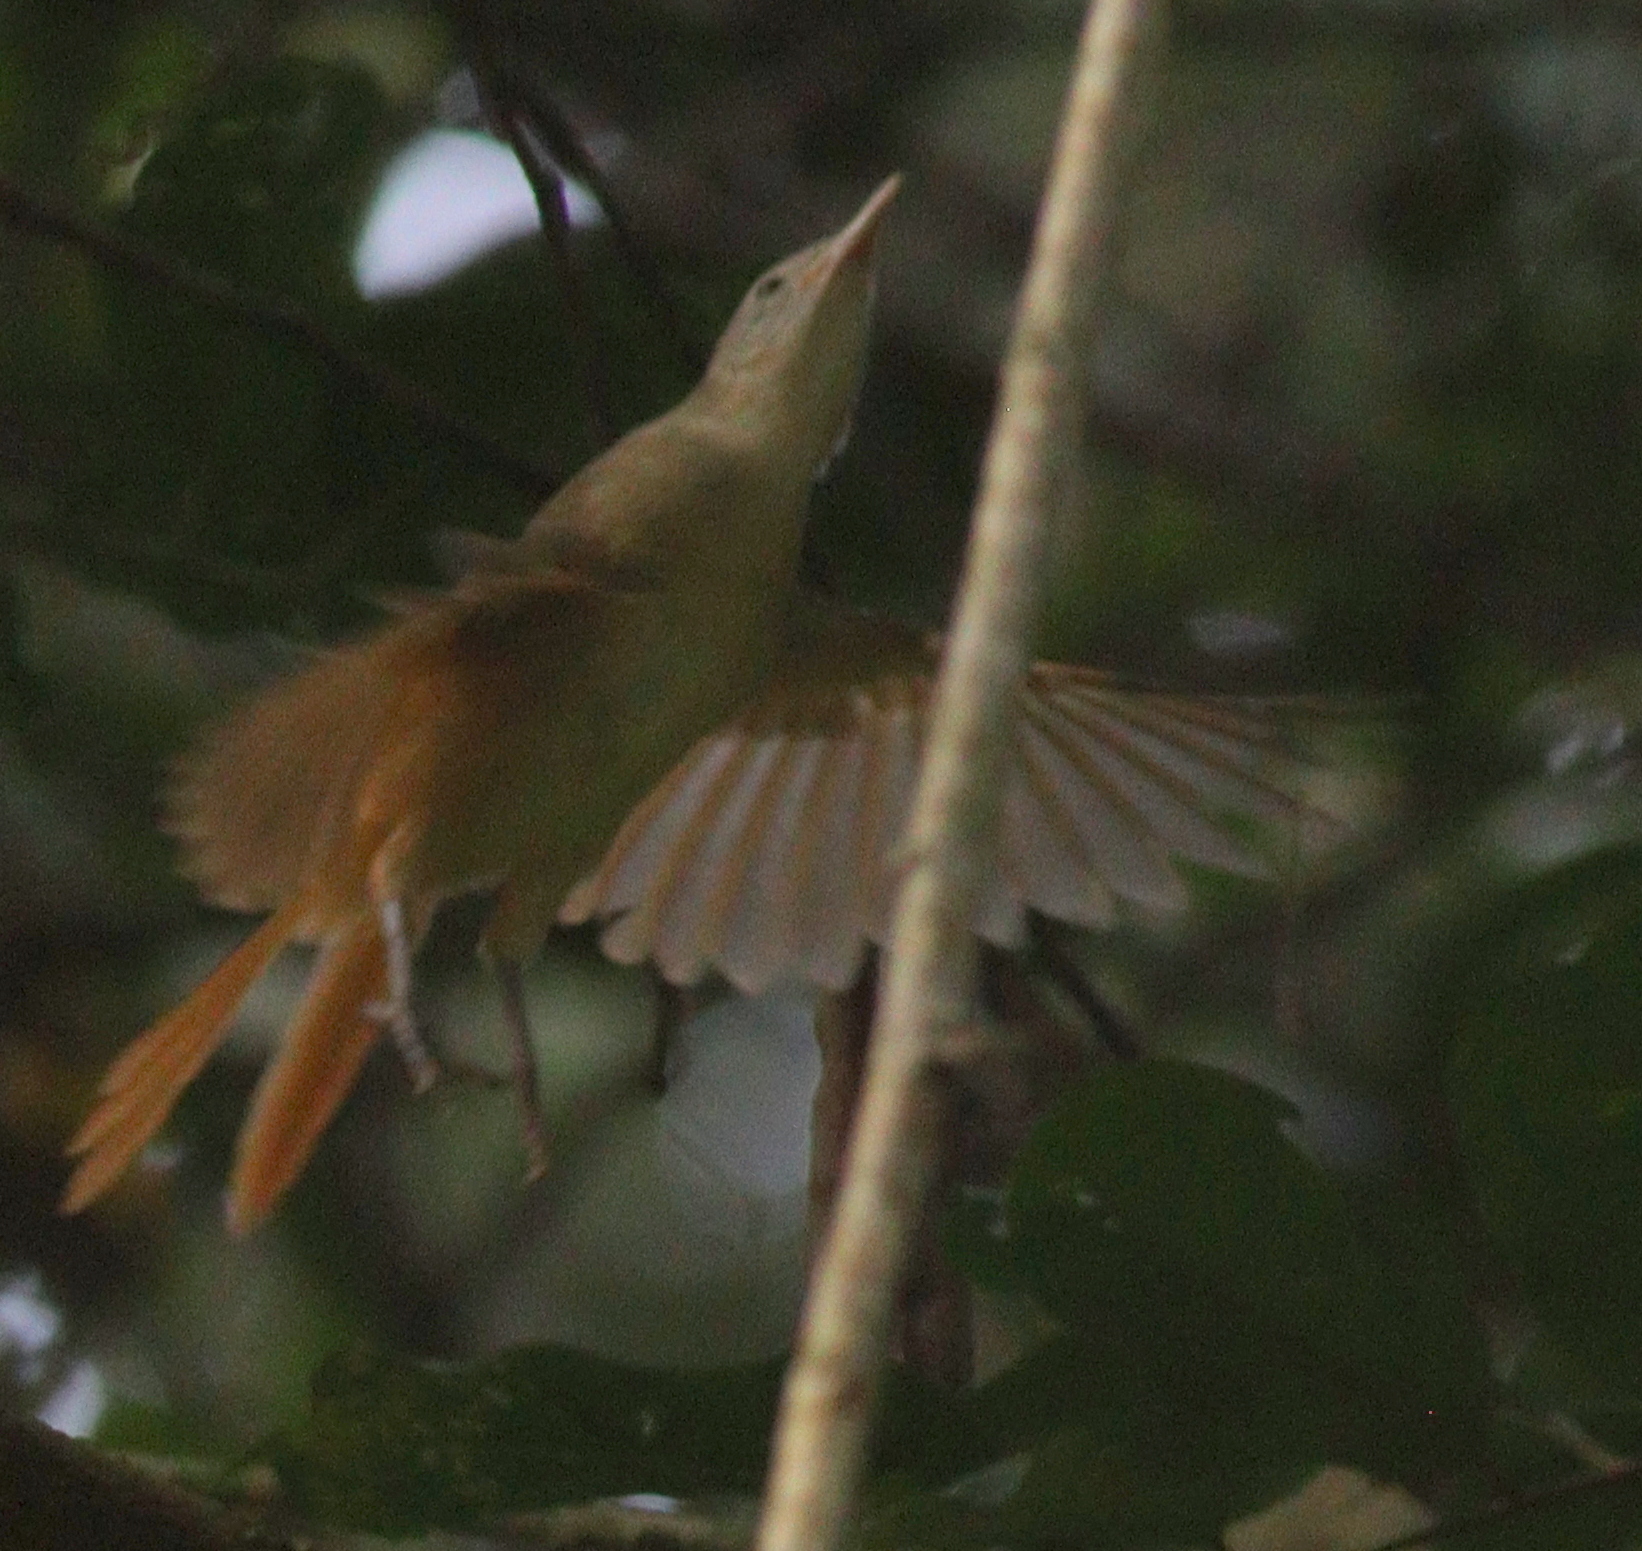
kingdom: Animalia
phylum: Chordata
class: Aves
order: Passeriformes
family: Pycnonotidae
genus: Phyllastrephus
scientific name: Phyllastrephus scandens
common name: Red-tailed leaflove
